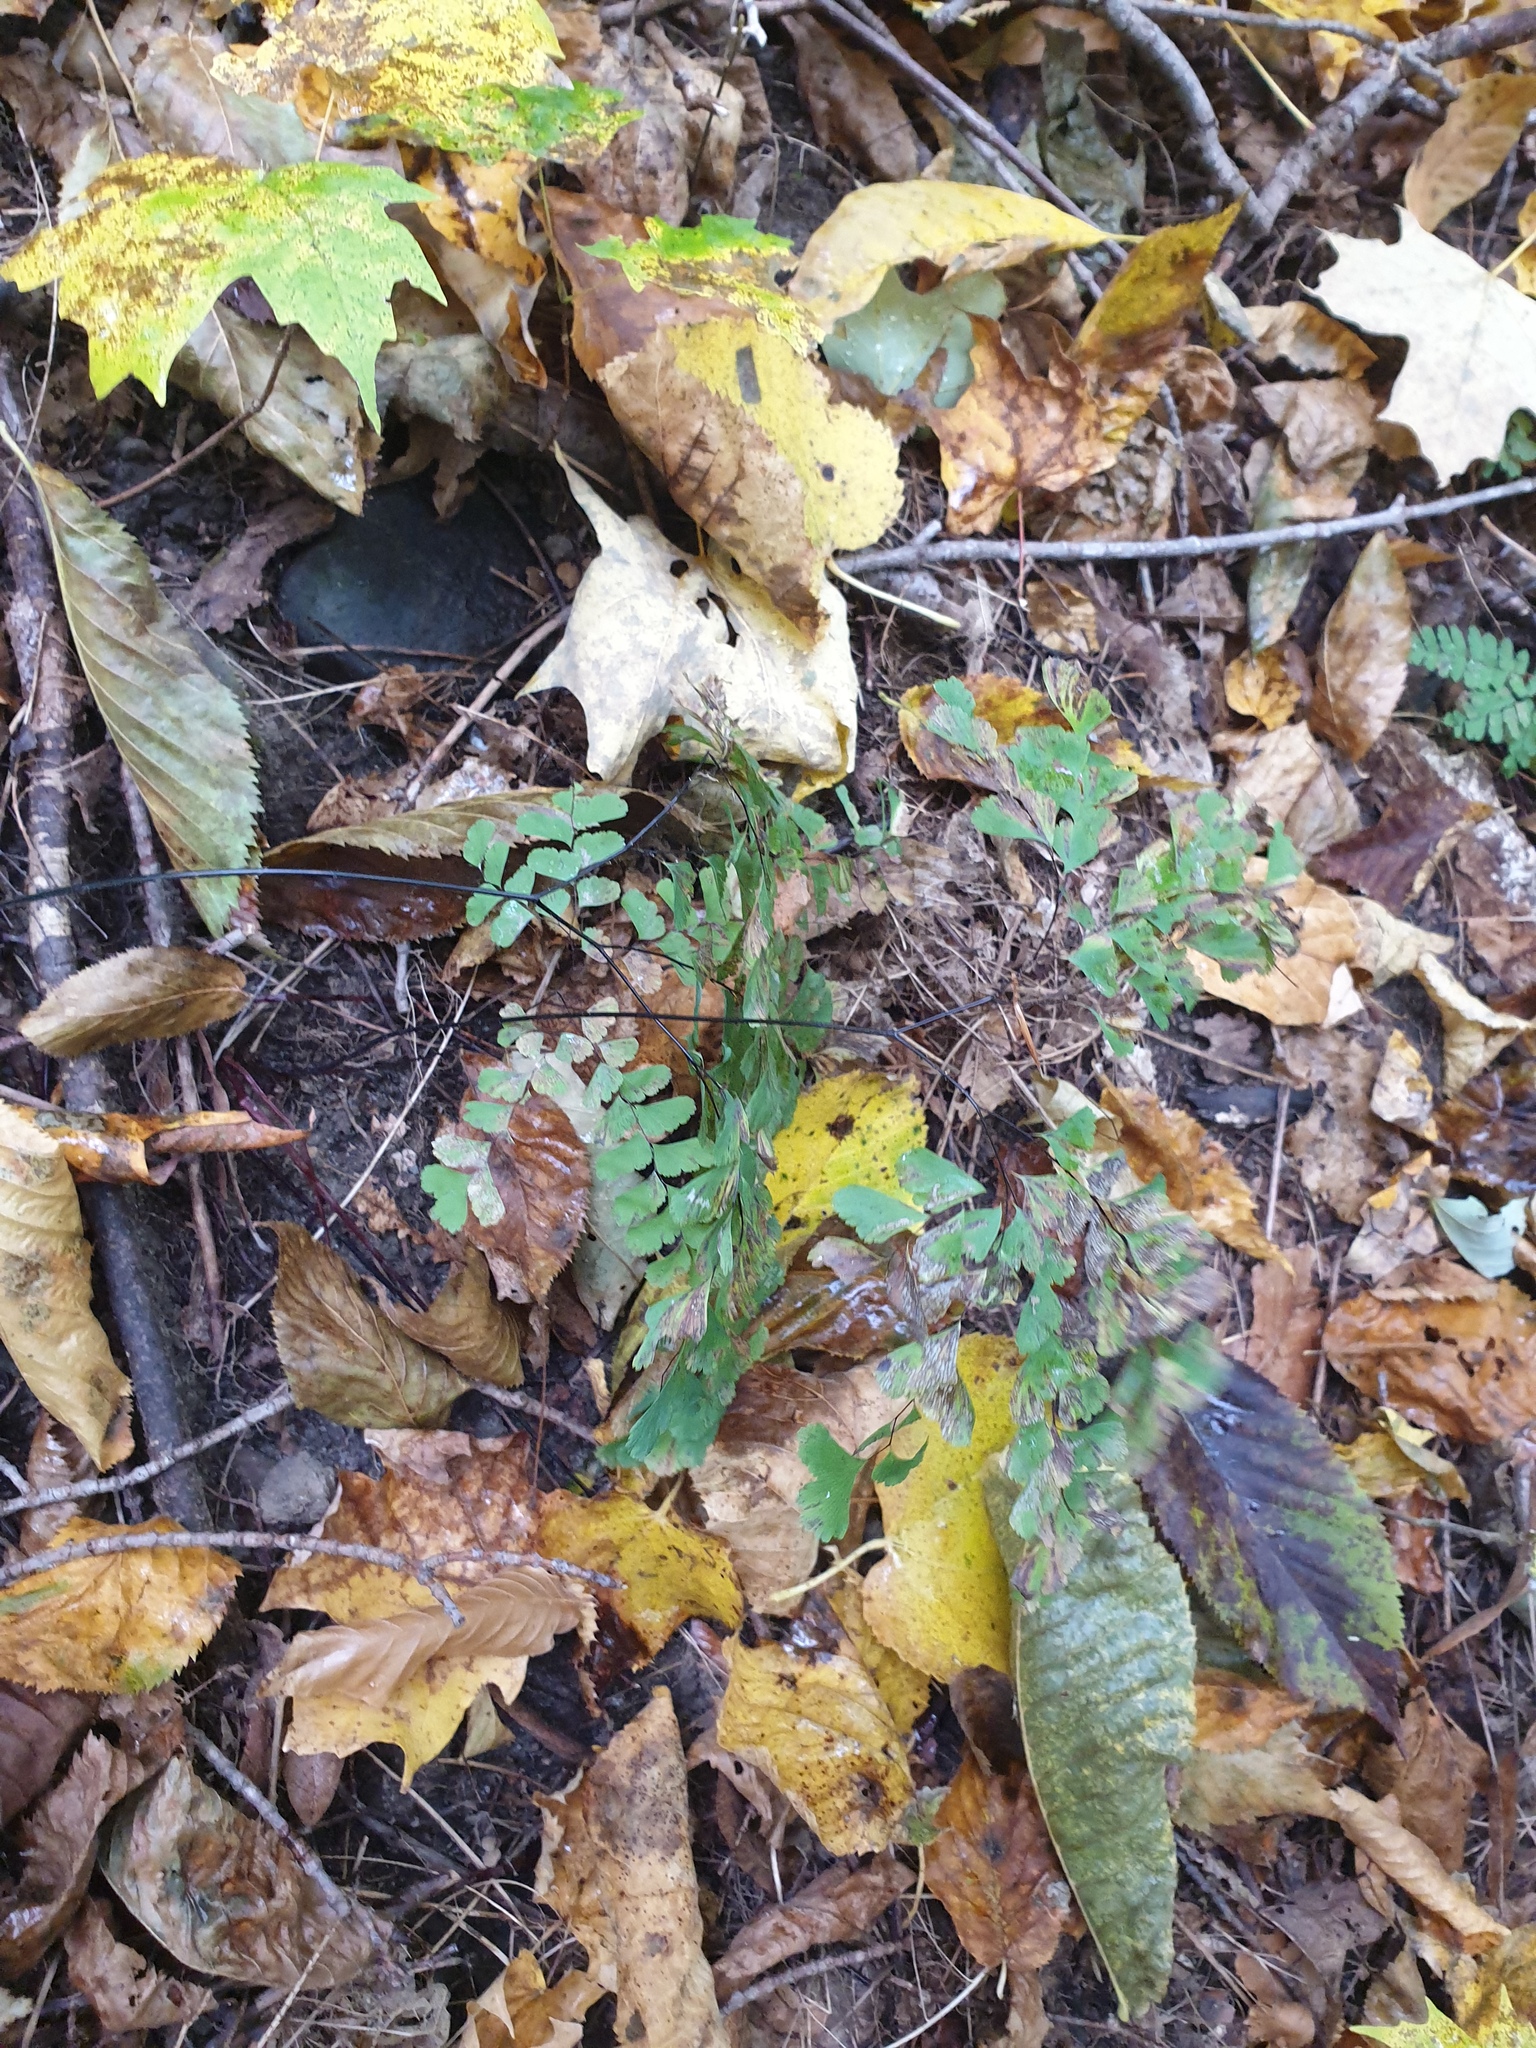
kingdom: Plantae
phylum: Tracheophyta
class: Polypodiopsida
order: Polypodiales
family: Pteridaceae
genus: Adiantum
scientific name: Adiantum pedatum
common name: Five-finger fern
